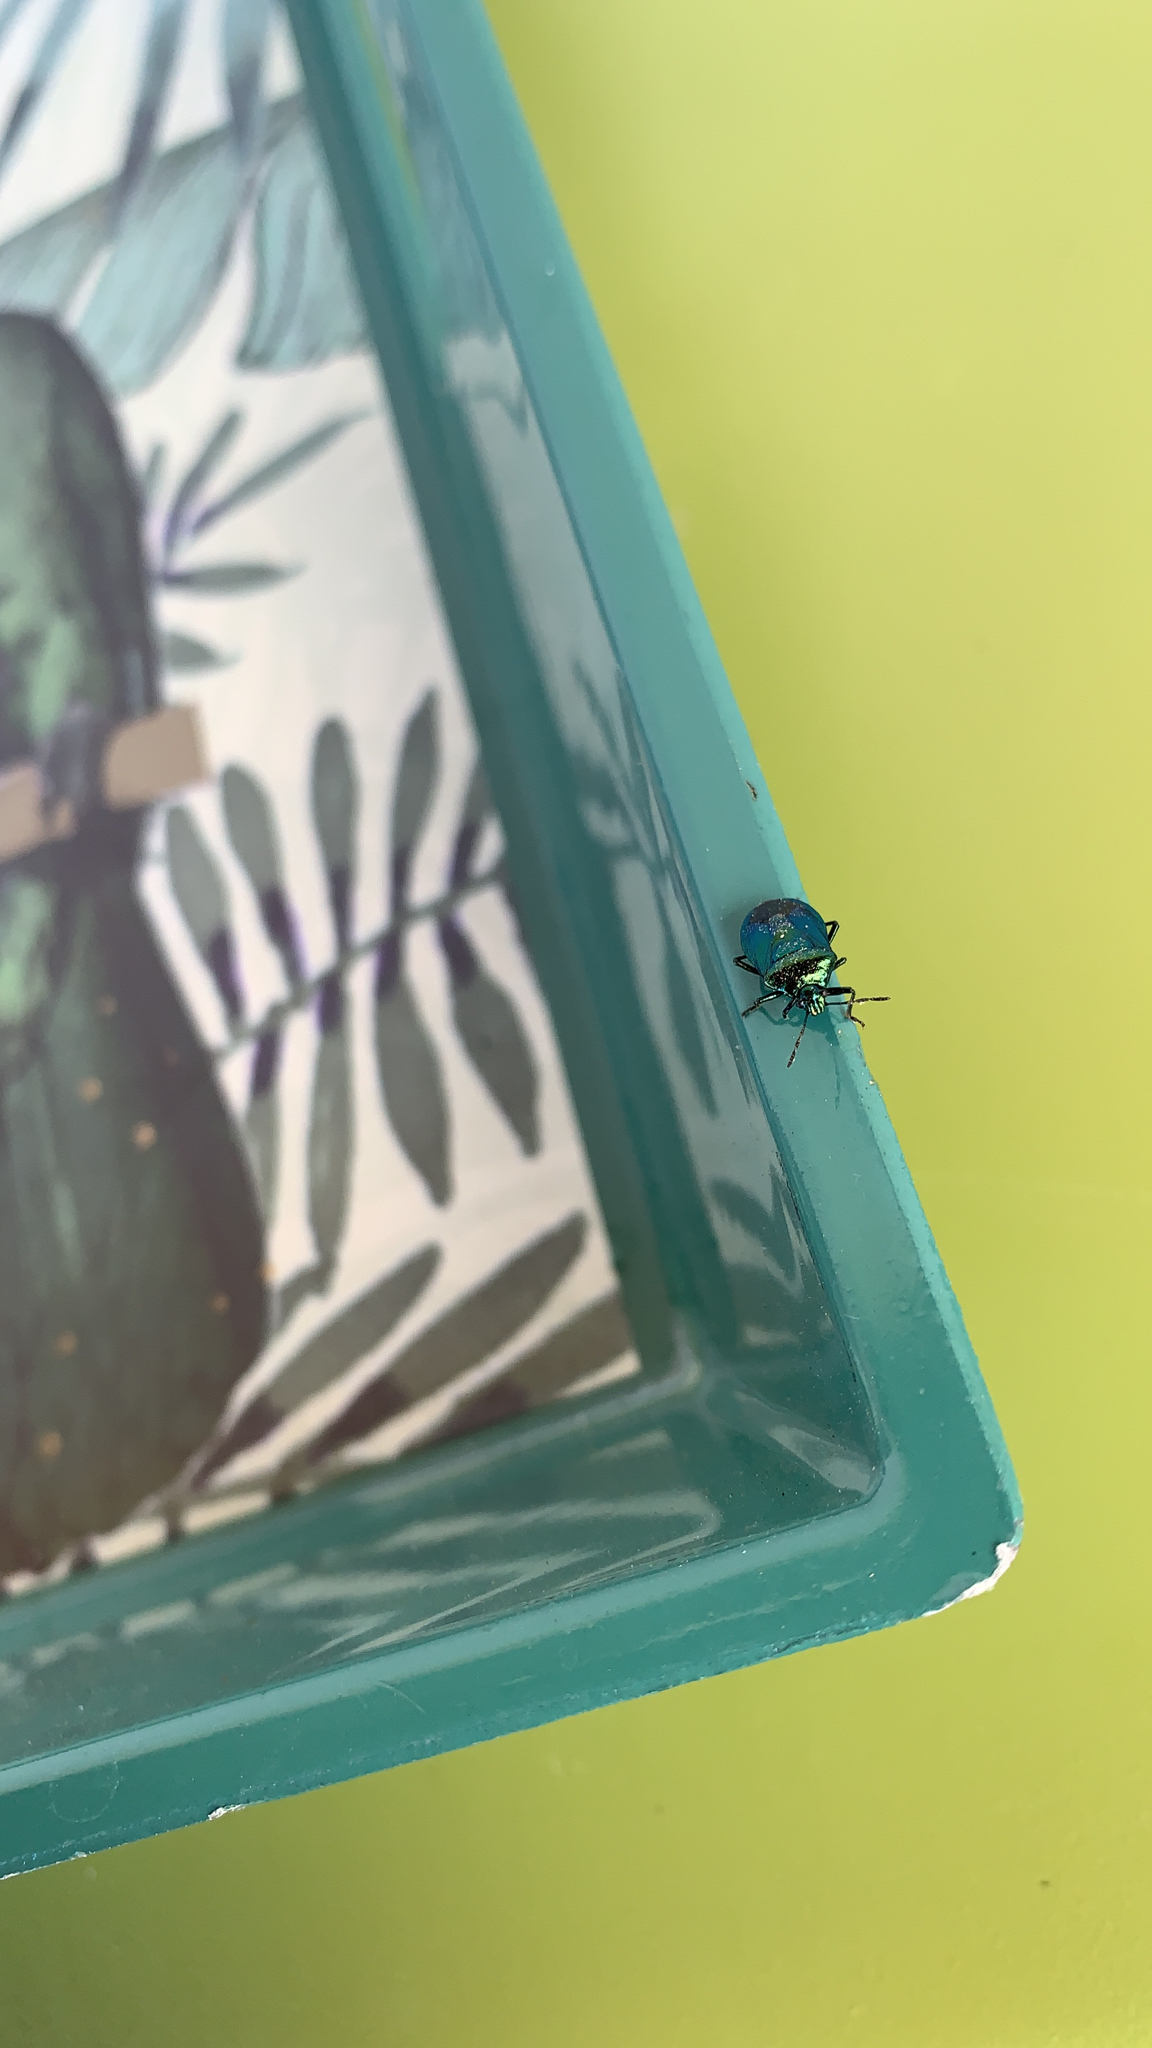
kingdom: Animalia
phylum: Arthropoda
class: Insecta
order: Hemiptera
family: Pentatomidae
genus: Zicrona
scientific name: Zicrona caerulea
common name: Blue shieldbug
